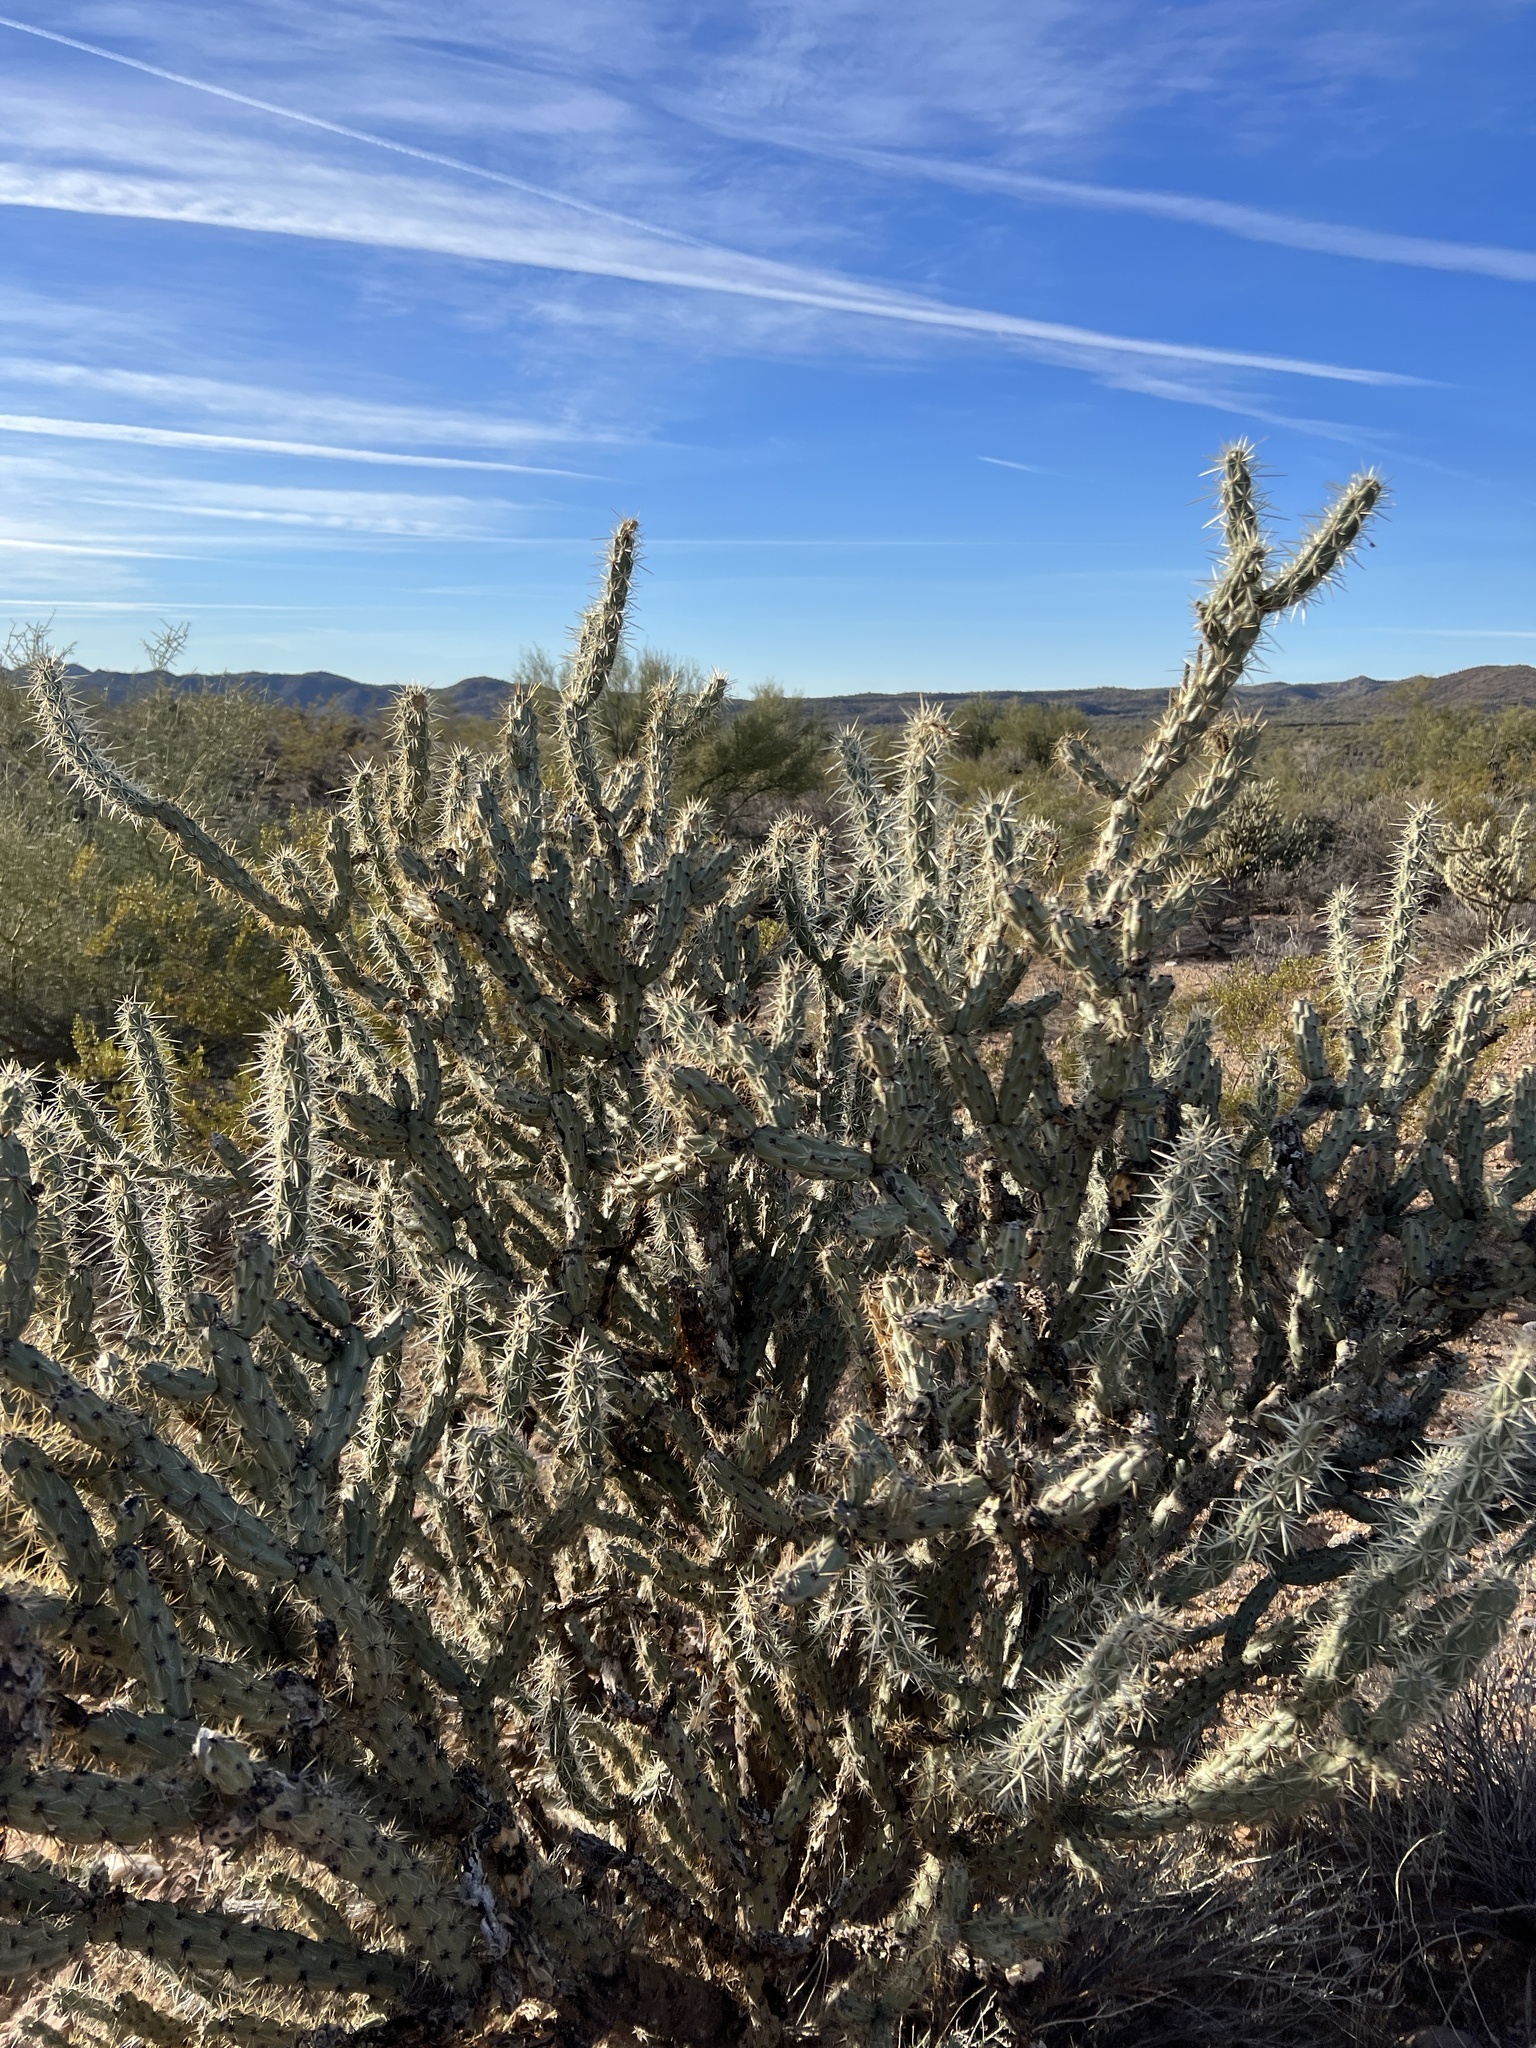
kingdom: Plantae
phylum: Tracheophyta
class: Magnoliopsida
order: Caryophyllales
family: Cactaceae
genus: Cylindropuntia
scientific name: Cylindropuntia acanthocarpa
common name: Buckhorn cholla
